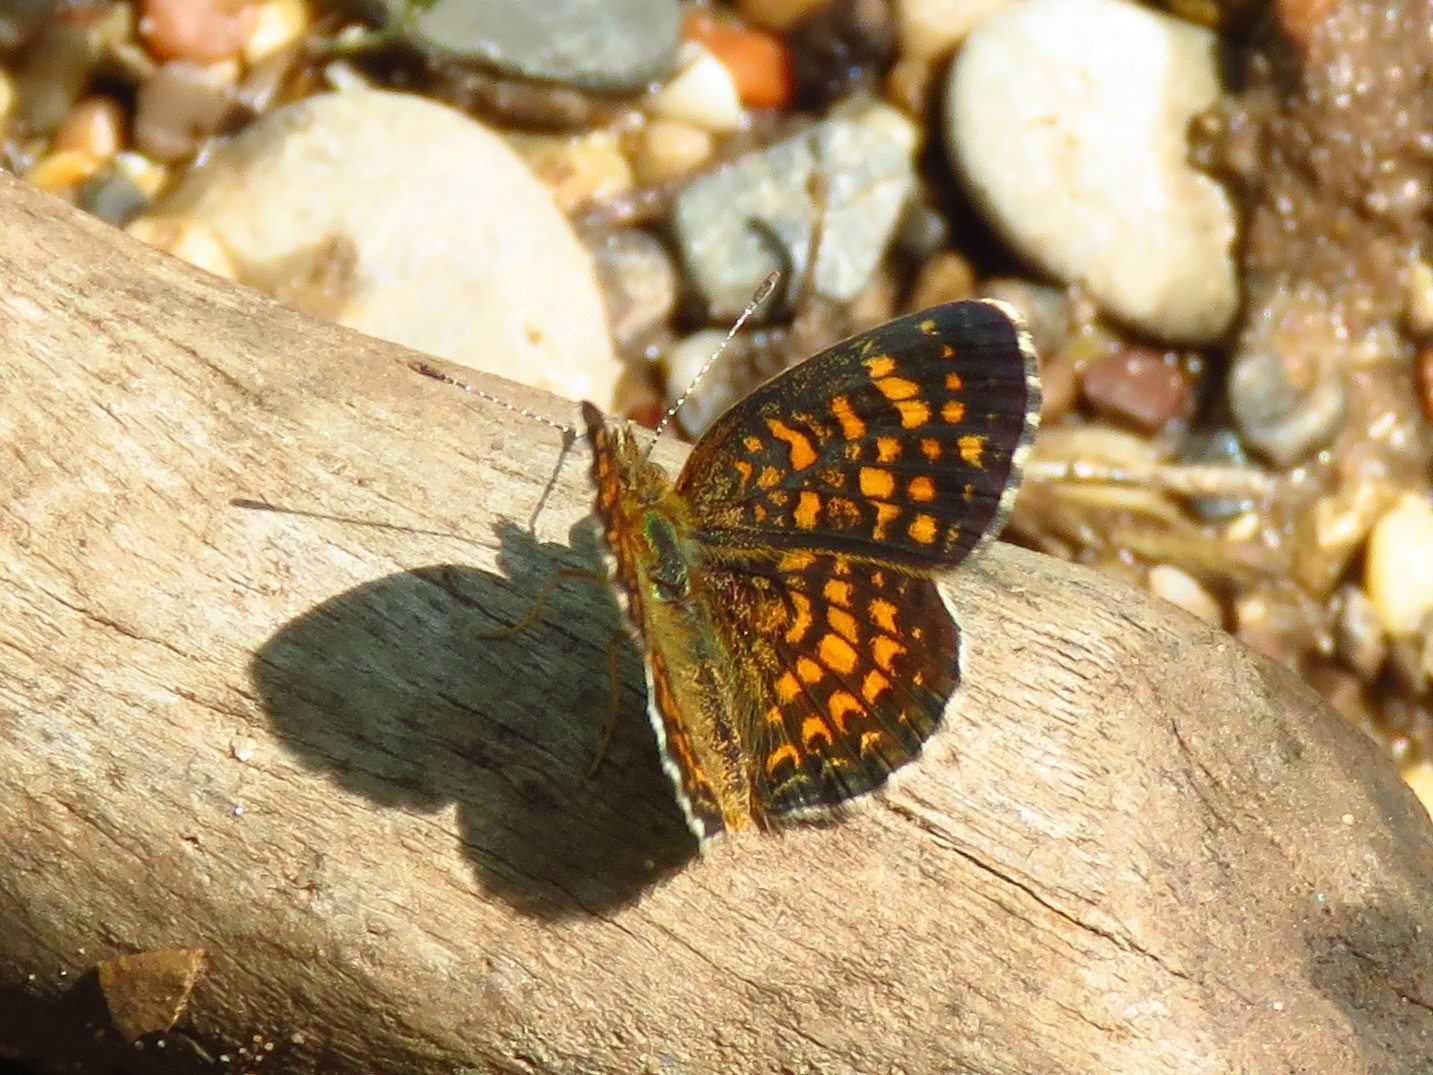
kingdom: Animalia
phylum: Arthropoda
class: Insecta
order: Lepidoptera
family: Nymphalidae
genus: Phyciodes
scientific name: Phyciodes vesta
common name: Vesta crescent
